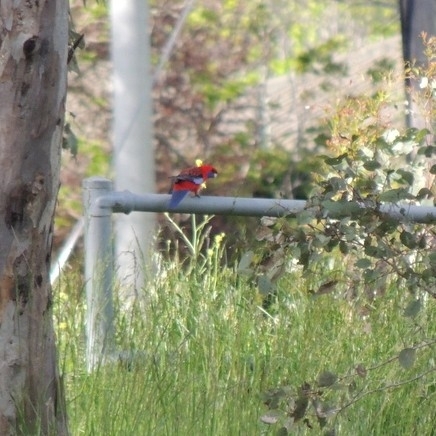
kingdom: Animalia
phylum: Chordata
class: Aves
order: Psittaciformes
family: Psittacidae
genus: Platycercus
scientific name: Platycercus elegans
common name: Crimson rosella
